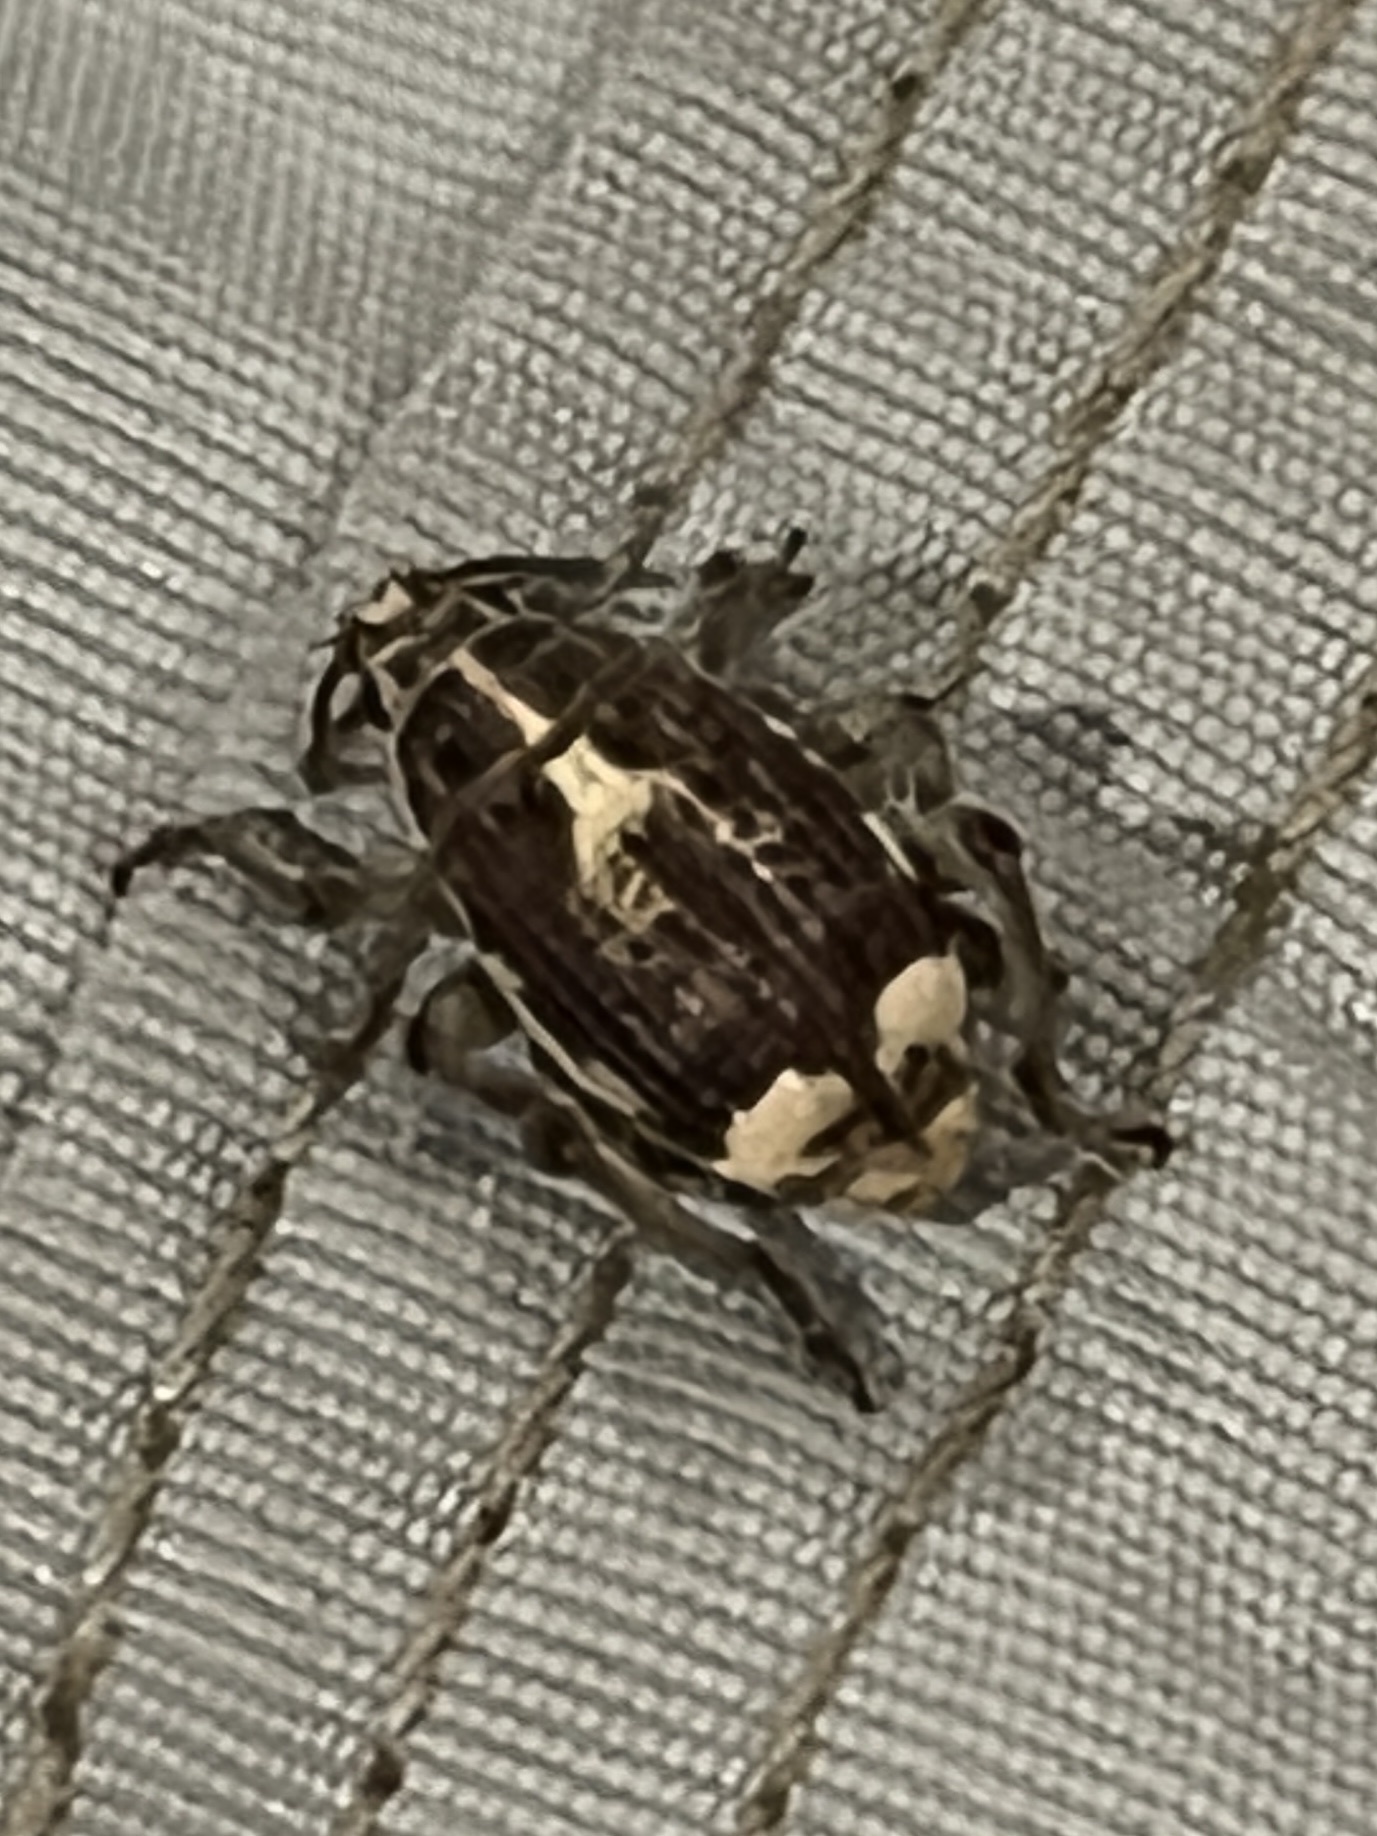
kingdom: Animalia
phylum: Arthropoda
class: Insecta
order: Coleoptera
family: Curculionidae
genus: Sciobius
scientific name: Sciobius pullus
